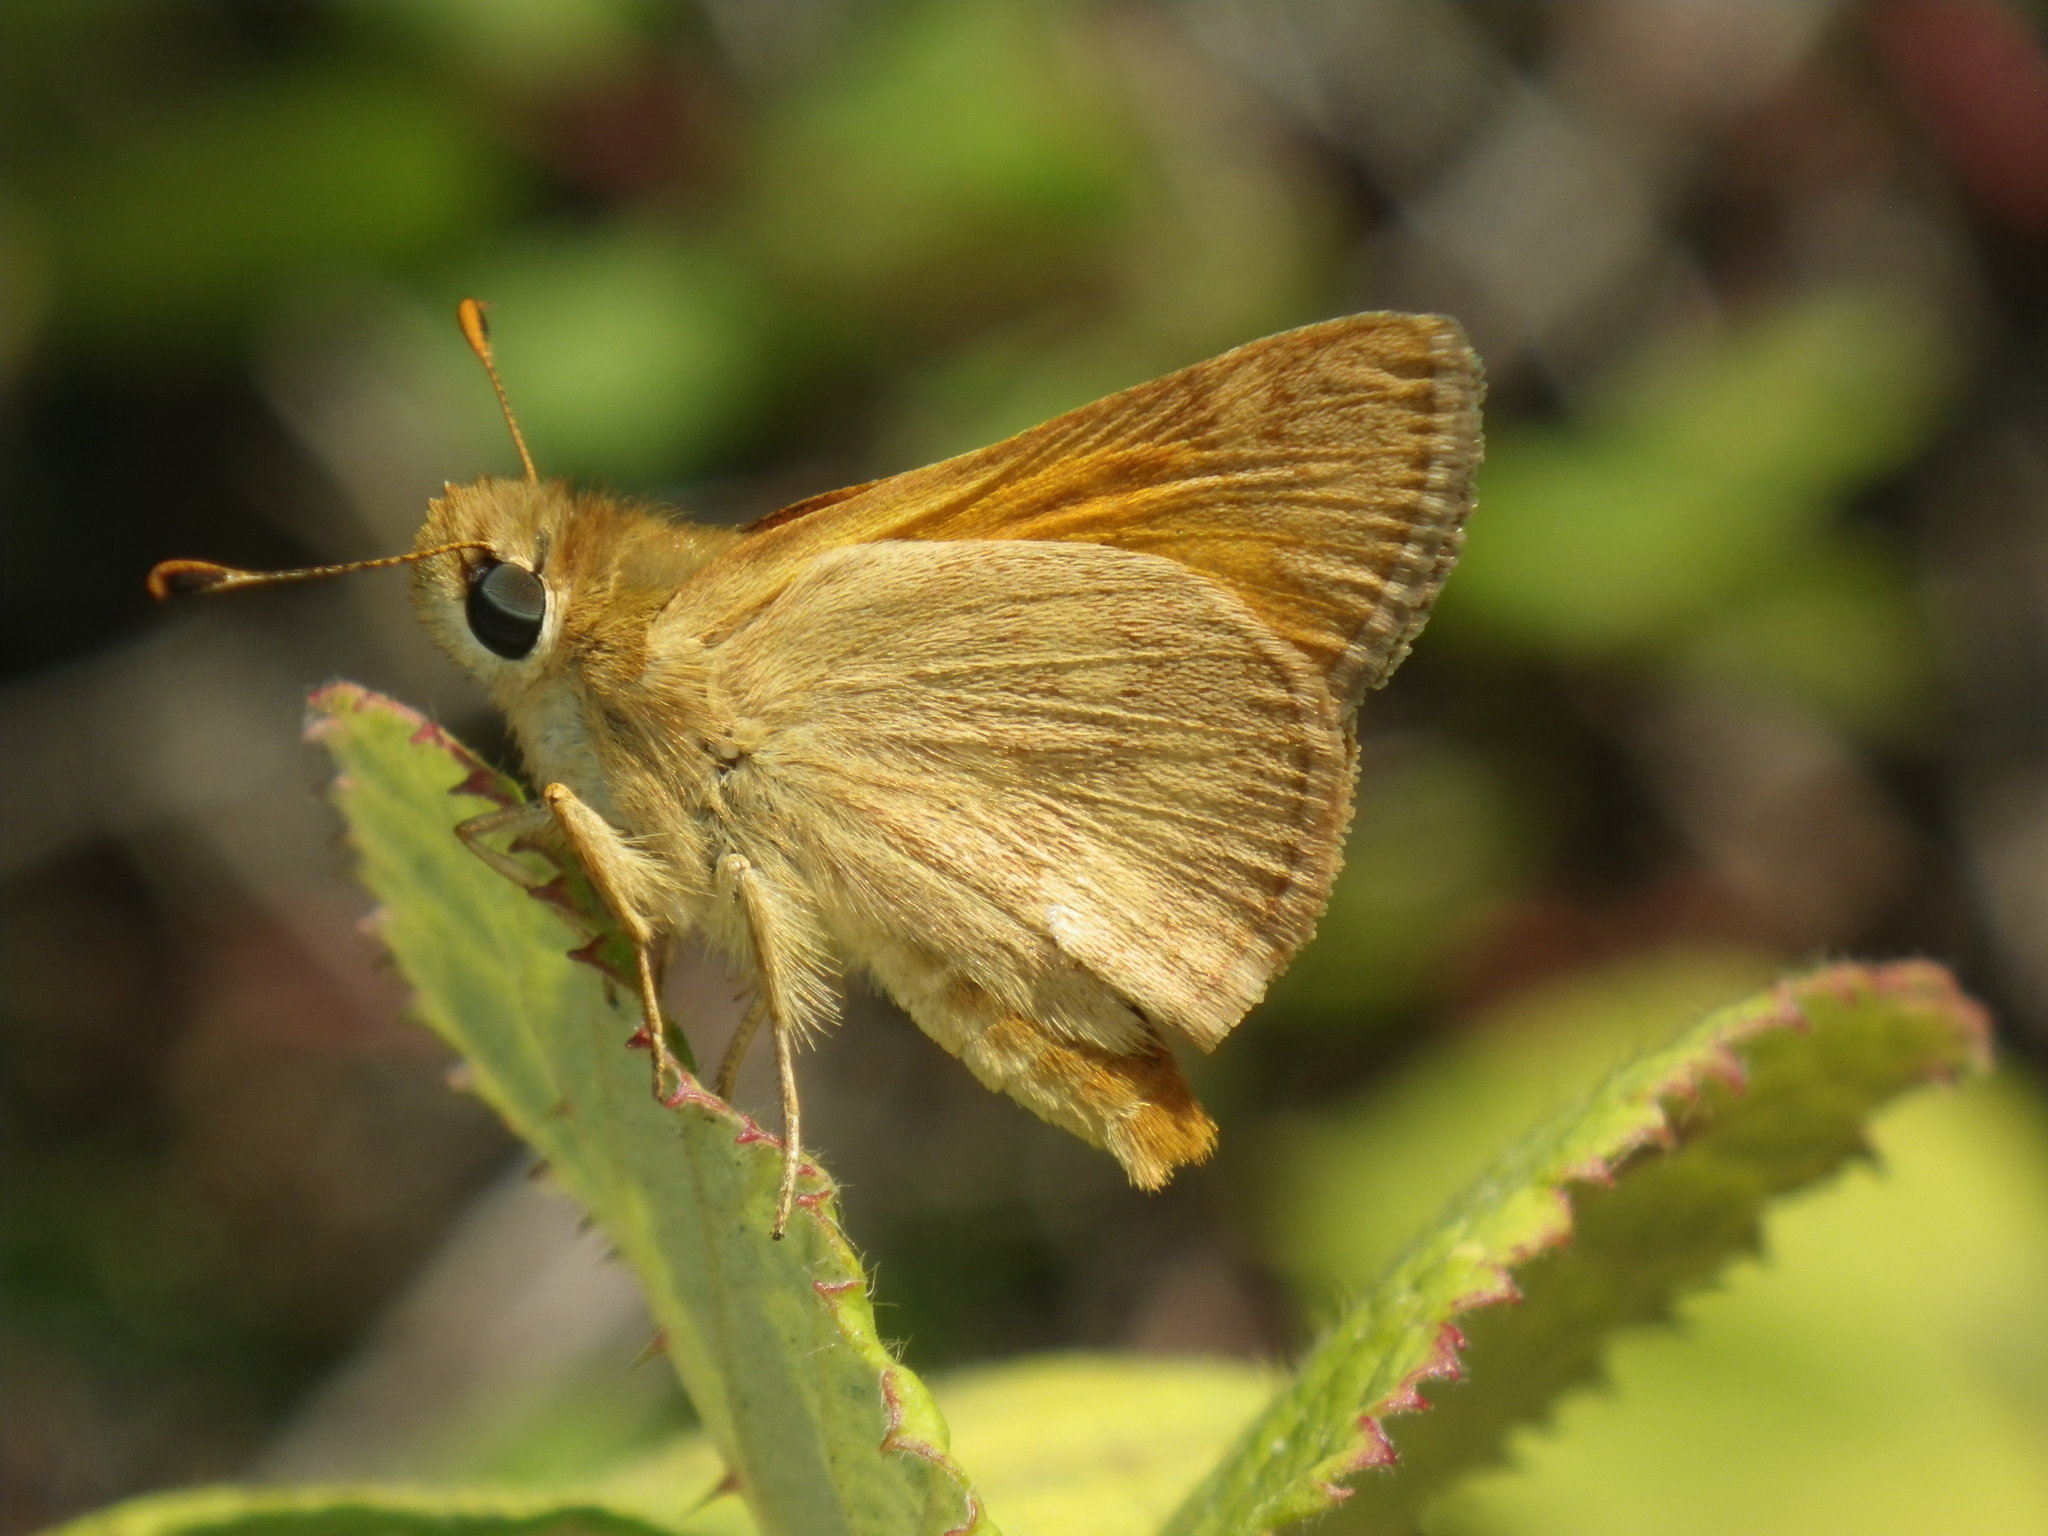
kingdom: Animalia
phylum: Arthropoda
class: Insecta
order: Lepidoptera
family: Hesperiidae
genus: Ochlodes
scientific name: Ochlodes sylvanoides
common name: Woodland skipper
